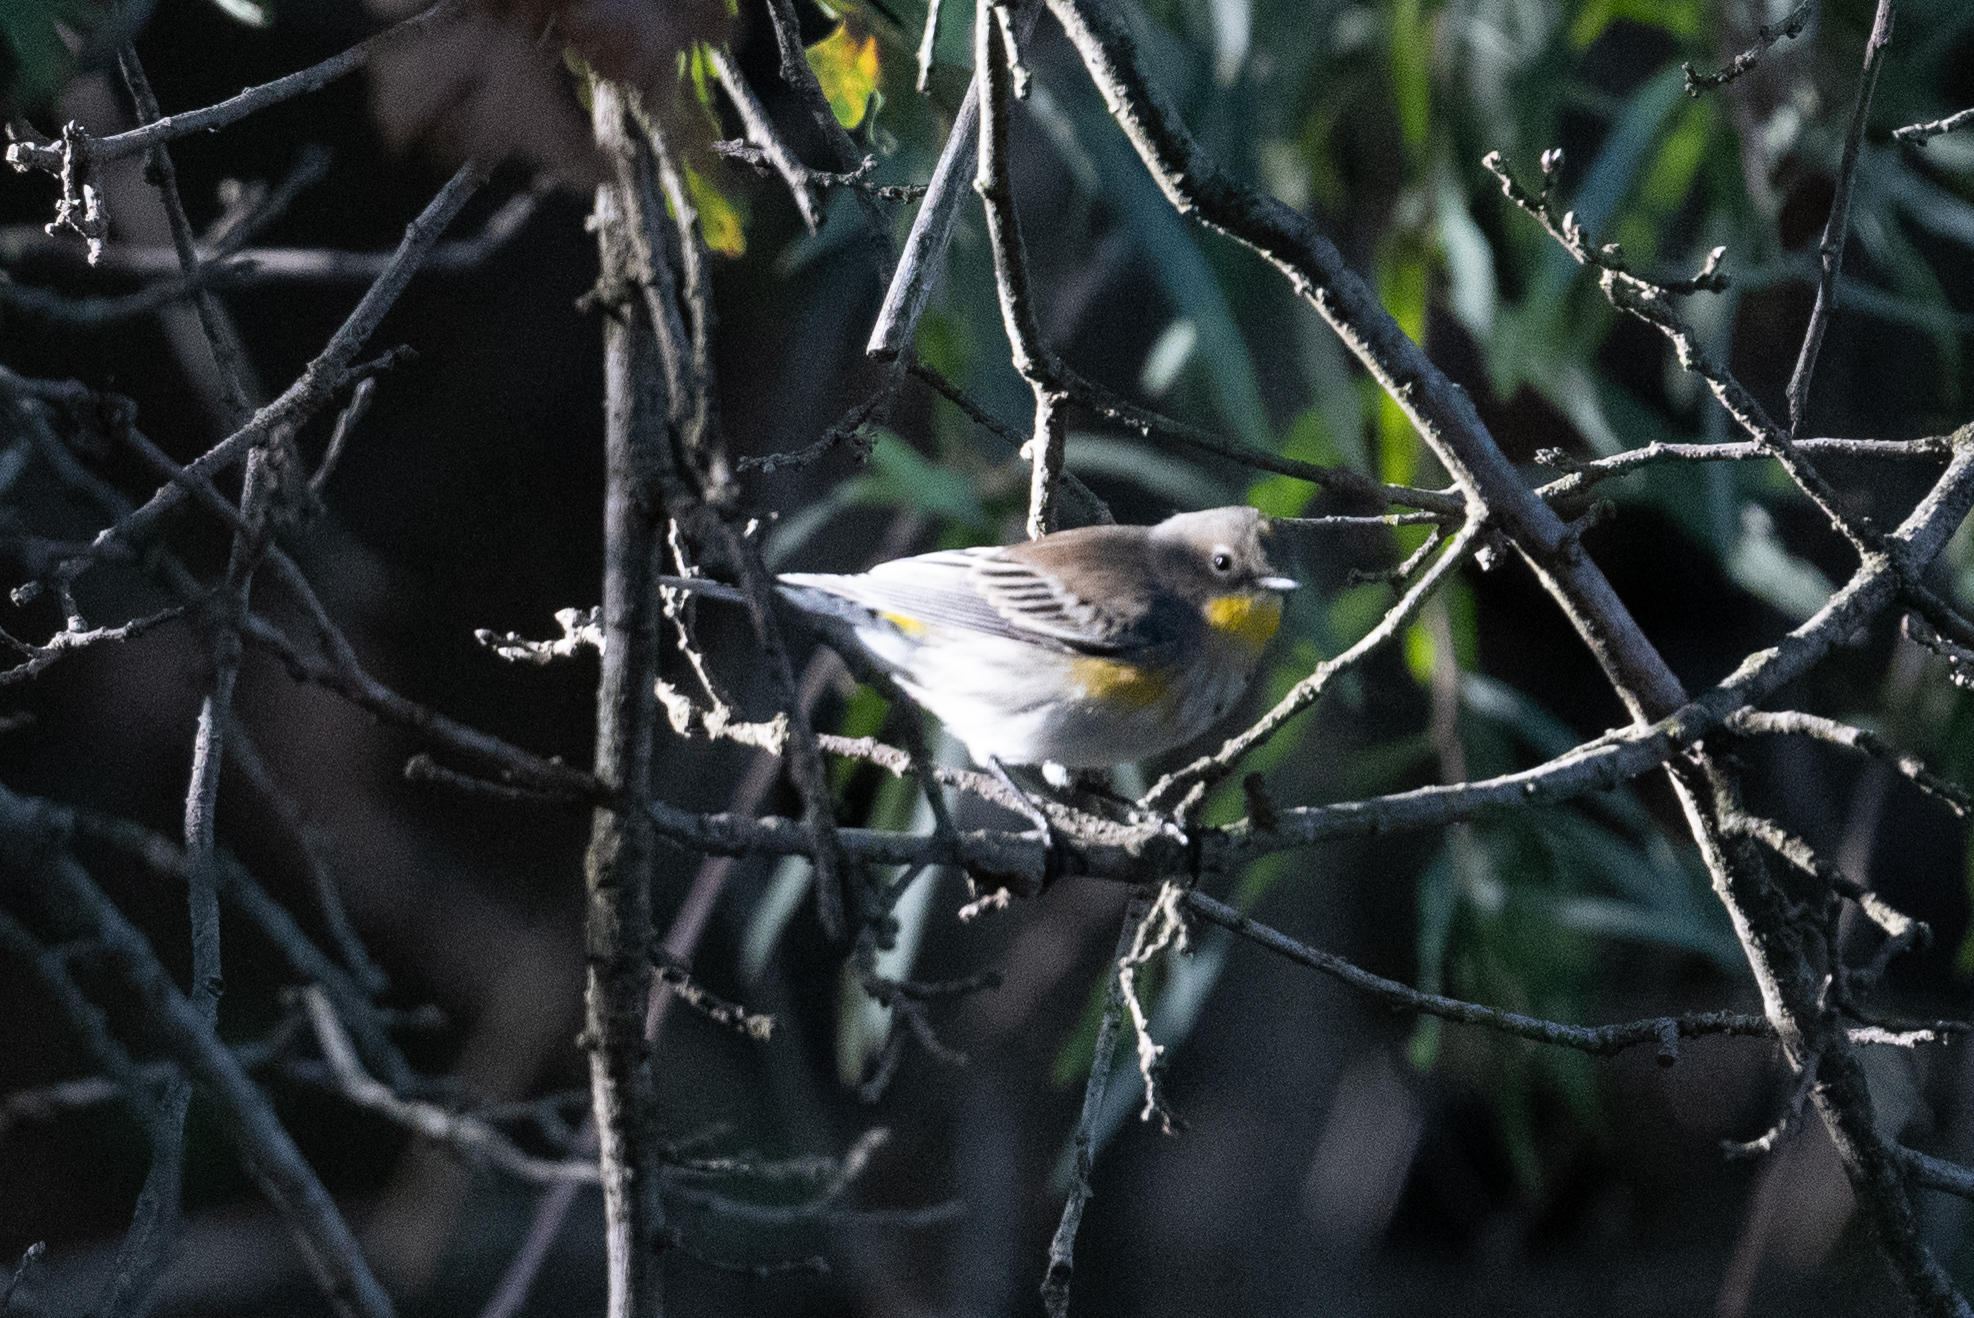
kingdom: Animalia
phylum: Chordata
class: Aves
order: Passeriformes
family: Parulidae
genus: Setophaga
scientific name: Setophaga coronata
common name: Myrtle warbler
